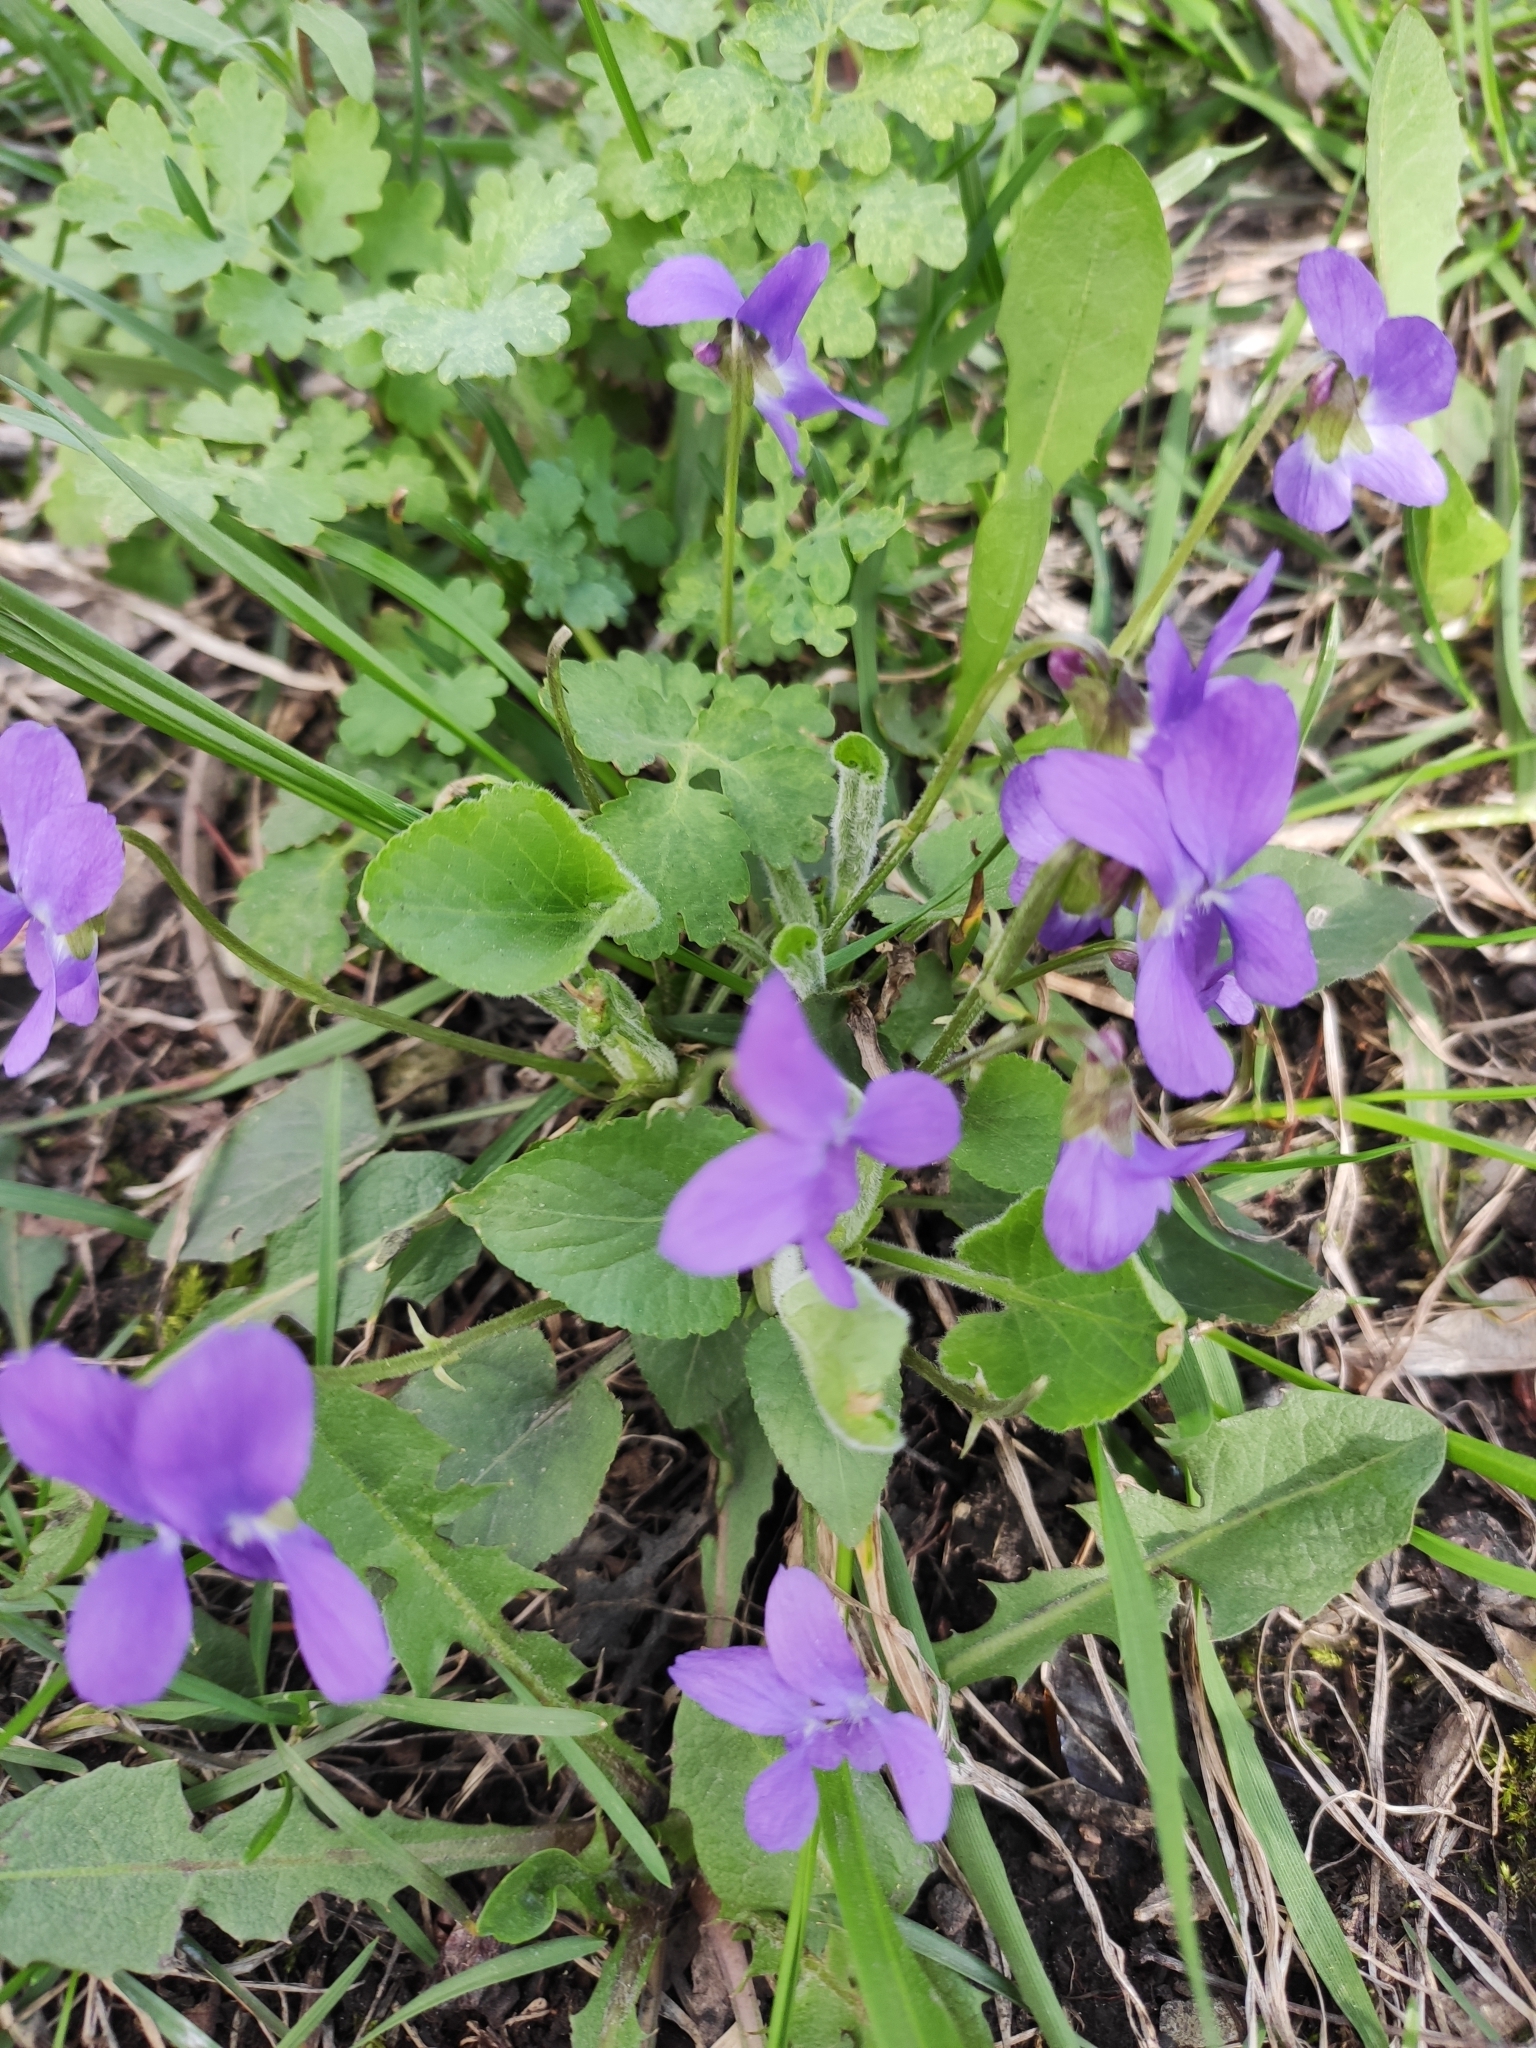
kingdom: Plantae
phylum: Tracheophyta
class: Magnoliopsida
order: Malpighiales
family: Violaceae
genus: Viola
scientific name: Viola hirta
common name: Hairy violet
